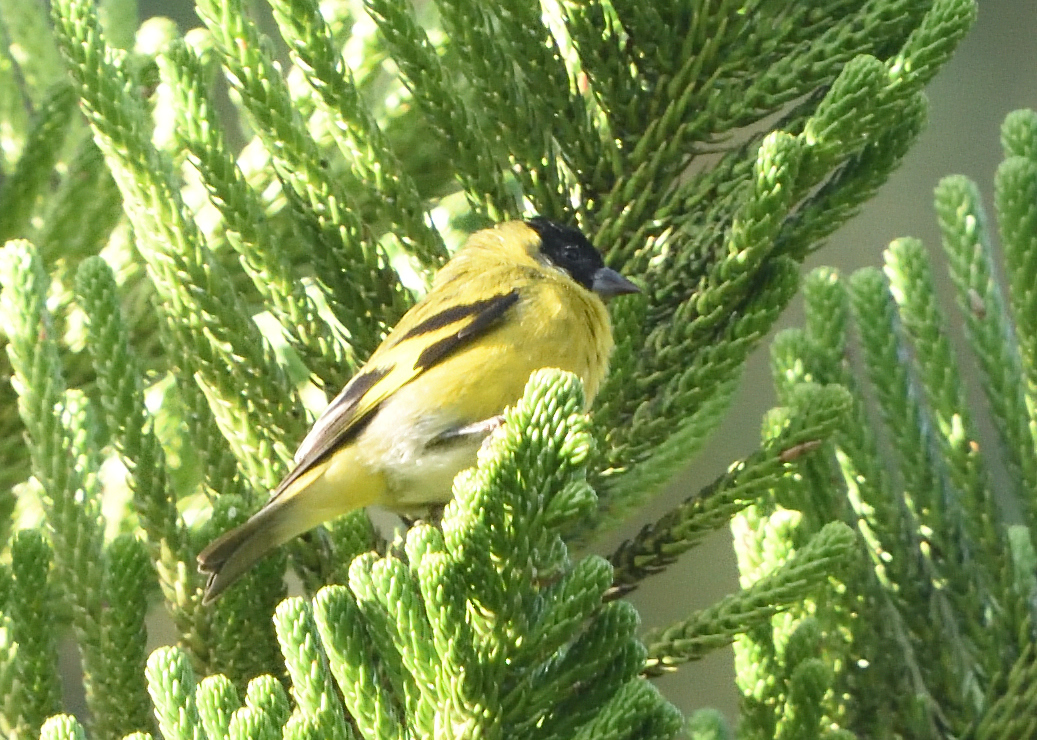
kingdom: Animalia
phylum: Chordata
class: Aves
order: Passeriformes
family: Fringillidae
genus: Spinus
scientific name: Spinus magellanicus
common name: Hooded siskin
